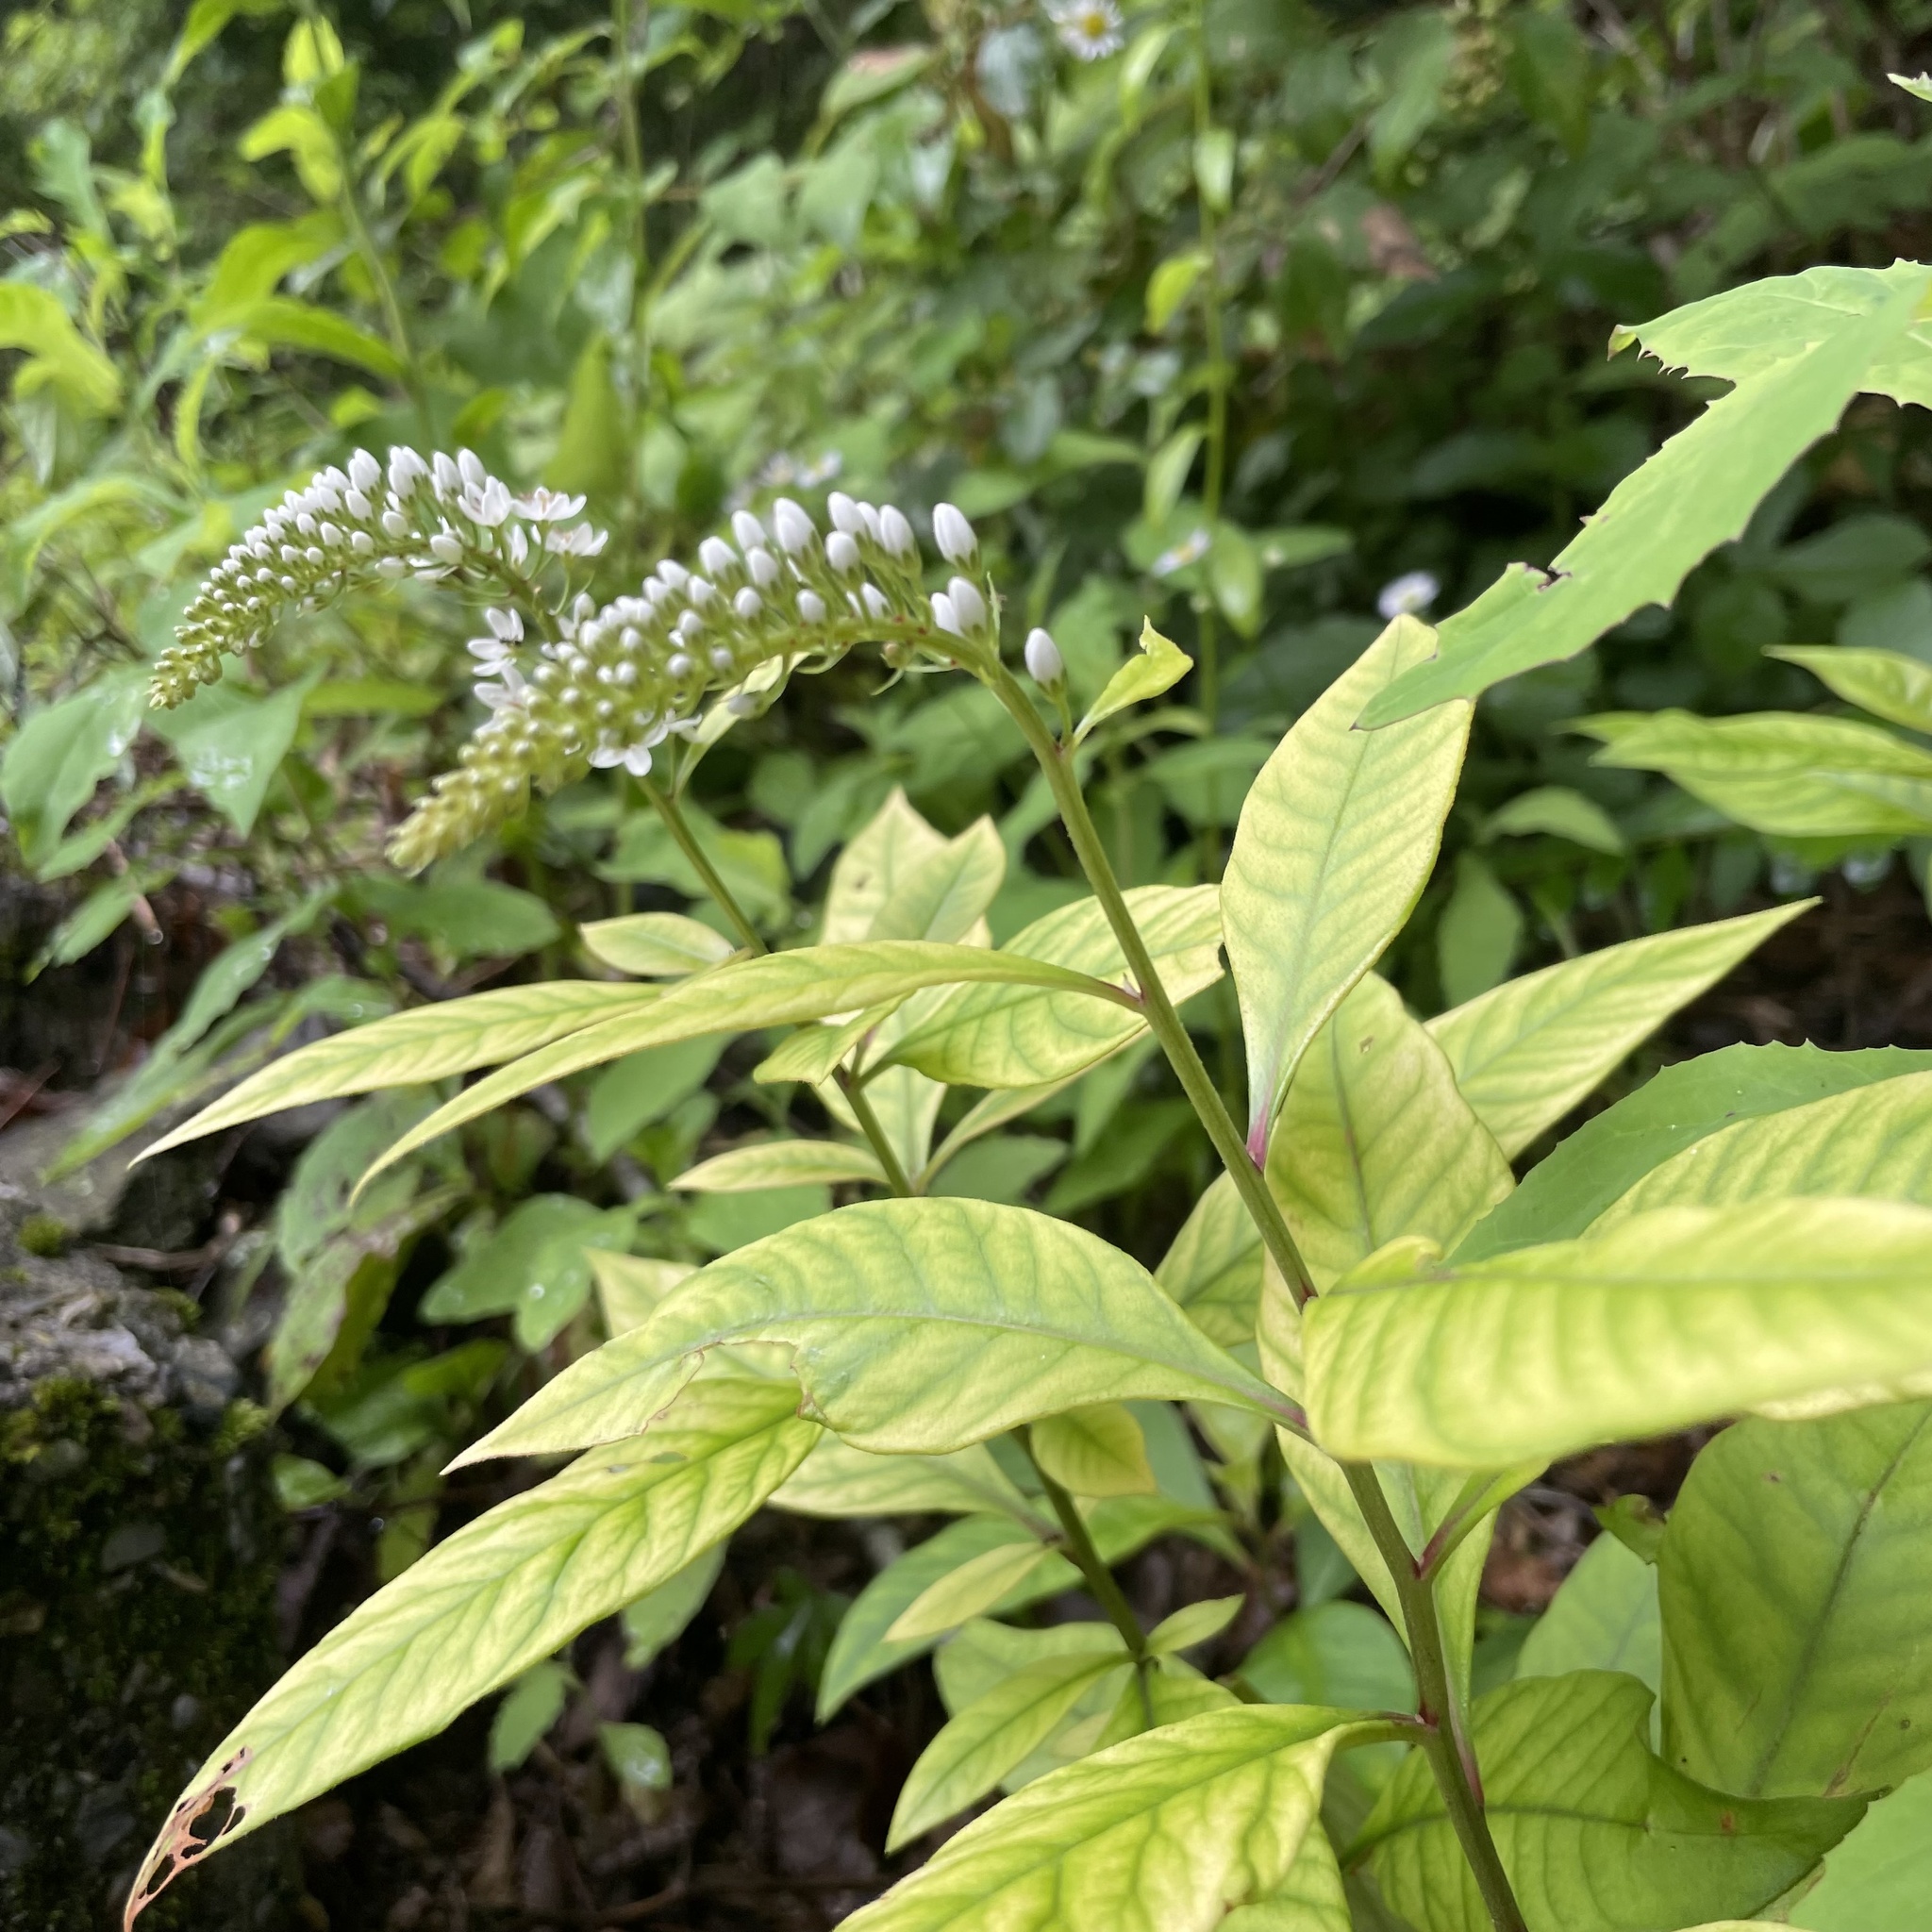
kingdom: Plantae
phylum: Tracheophyta
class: Magnoliopsida
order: Ericales
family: Primulaceae
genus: Lysimachia
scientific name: Lysimachia clethroides
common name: Gooseneck loosestrife
